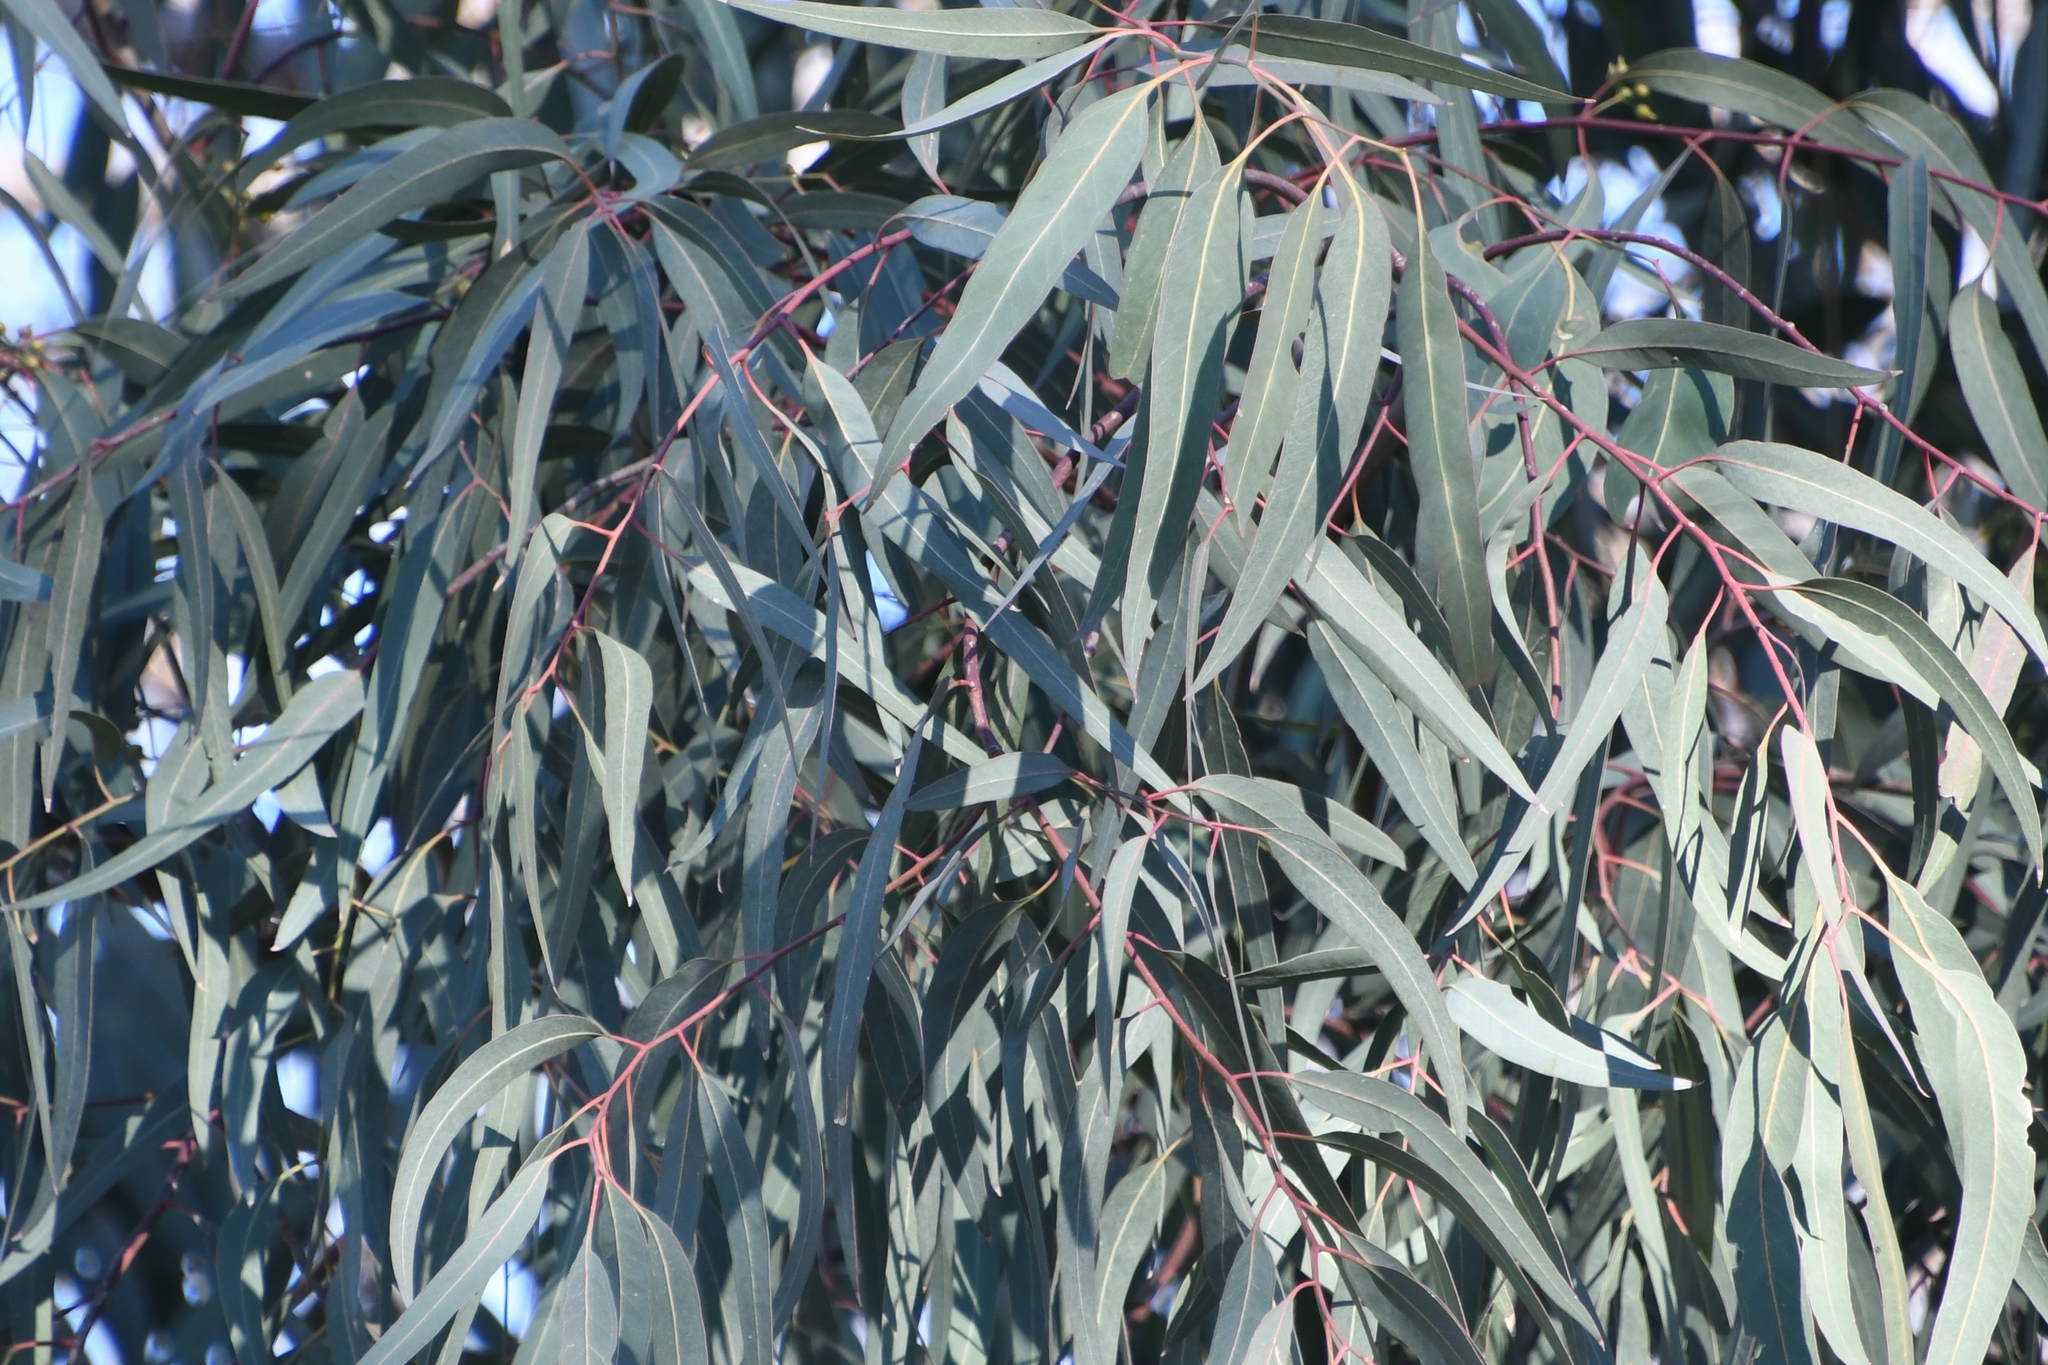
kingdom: Plantae
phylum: Tracheophyta
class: Magnoliopsida
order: Myrtales
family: Myrtaceae
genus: Eucalyptus
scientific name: Eucalyptus camaldulensis
